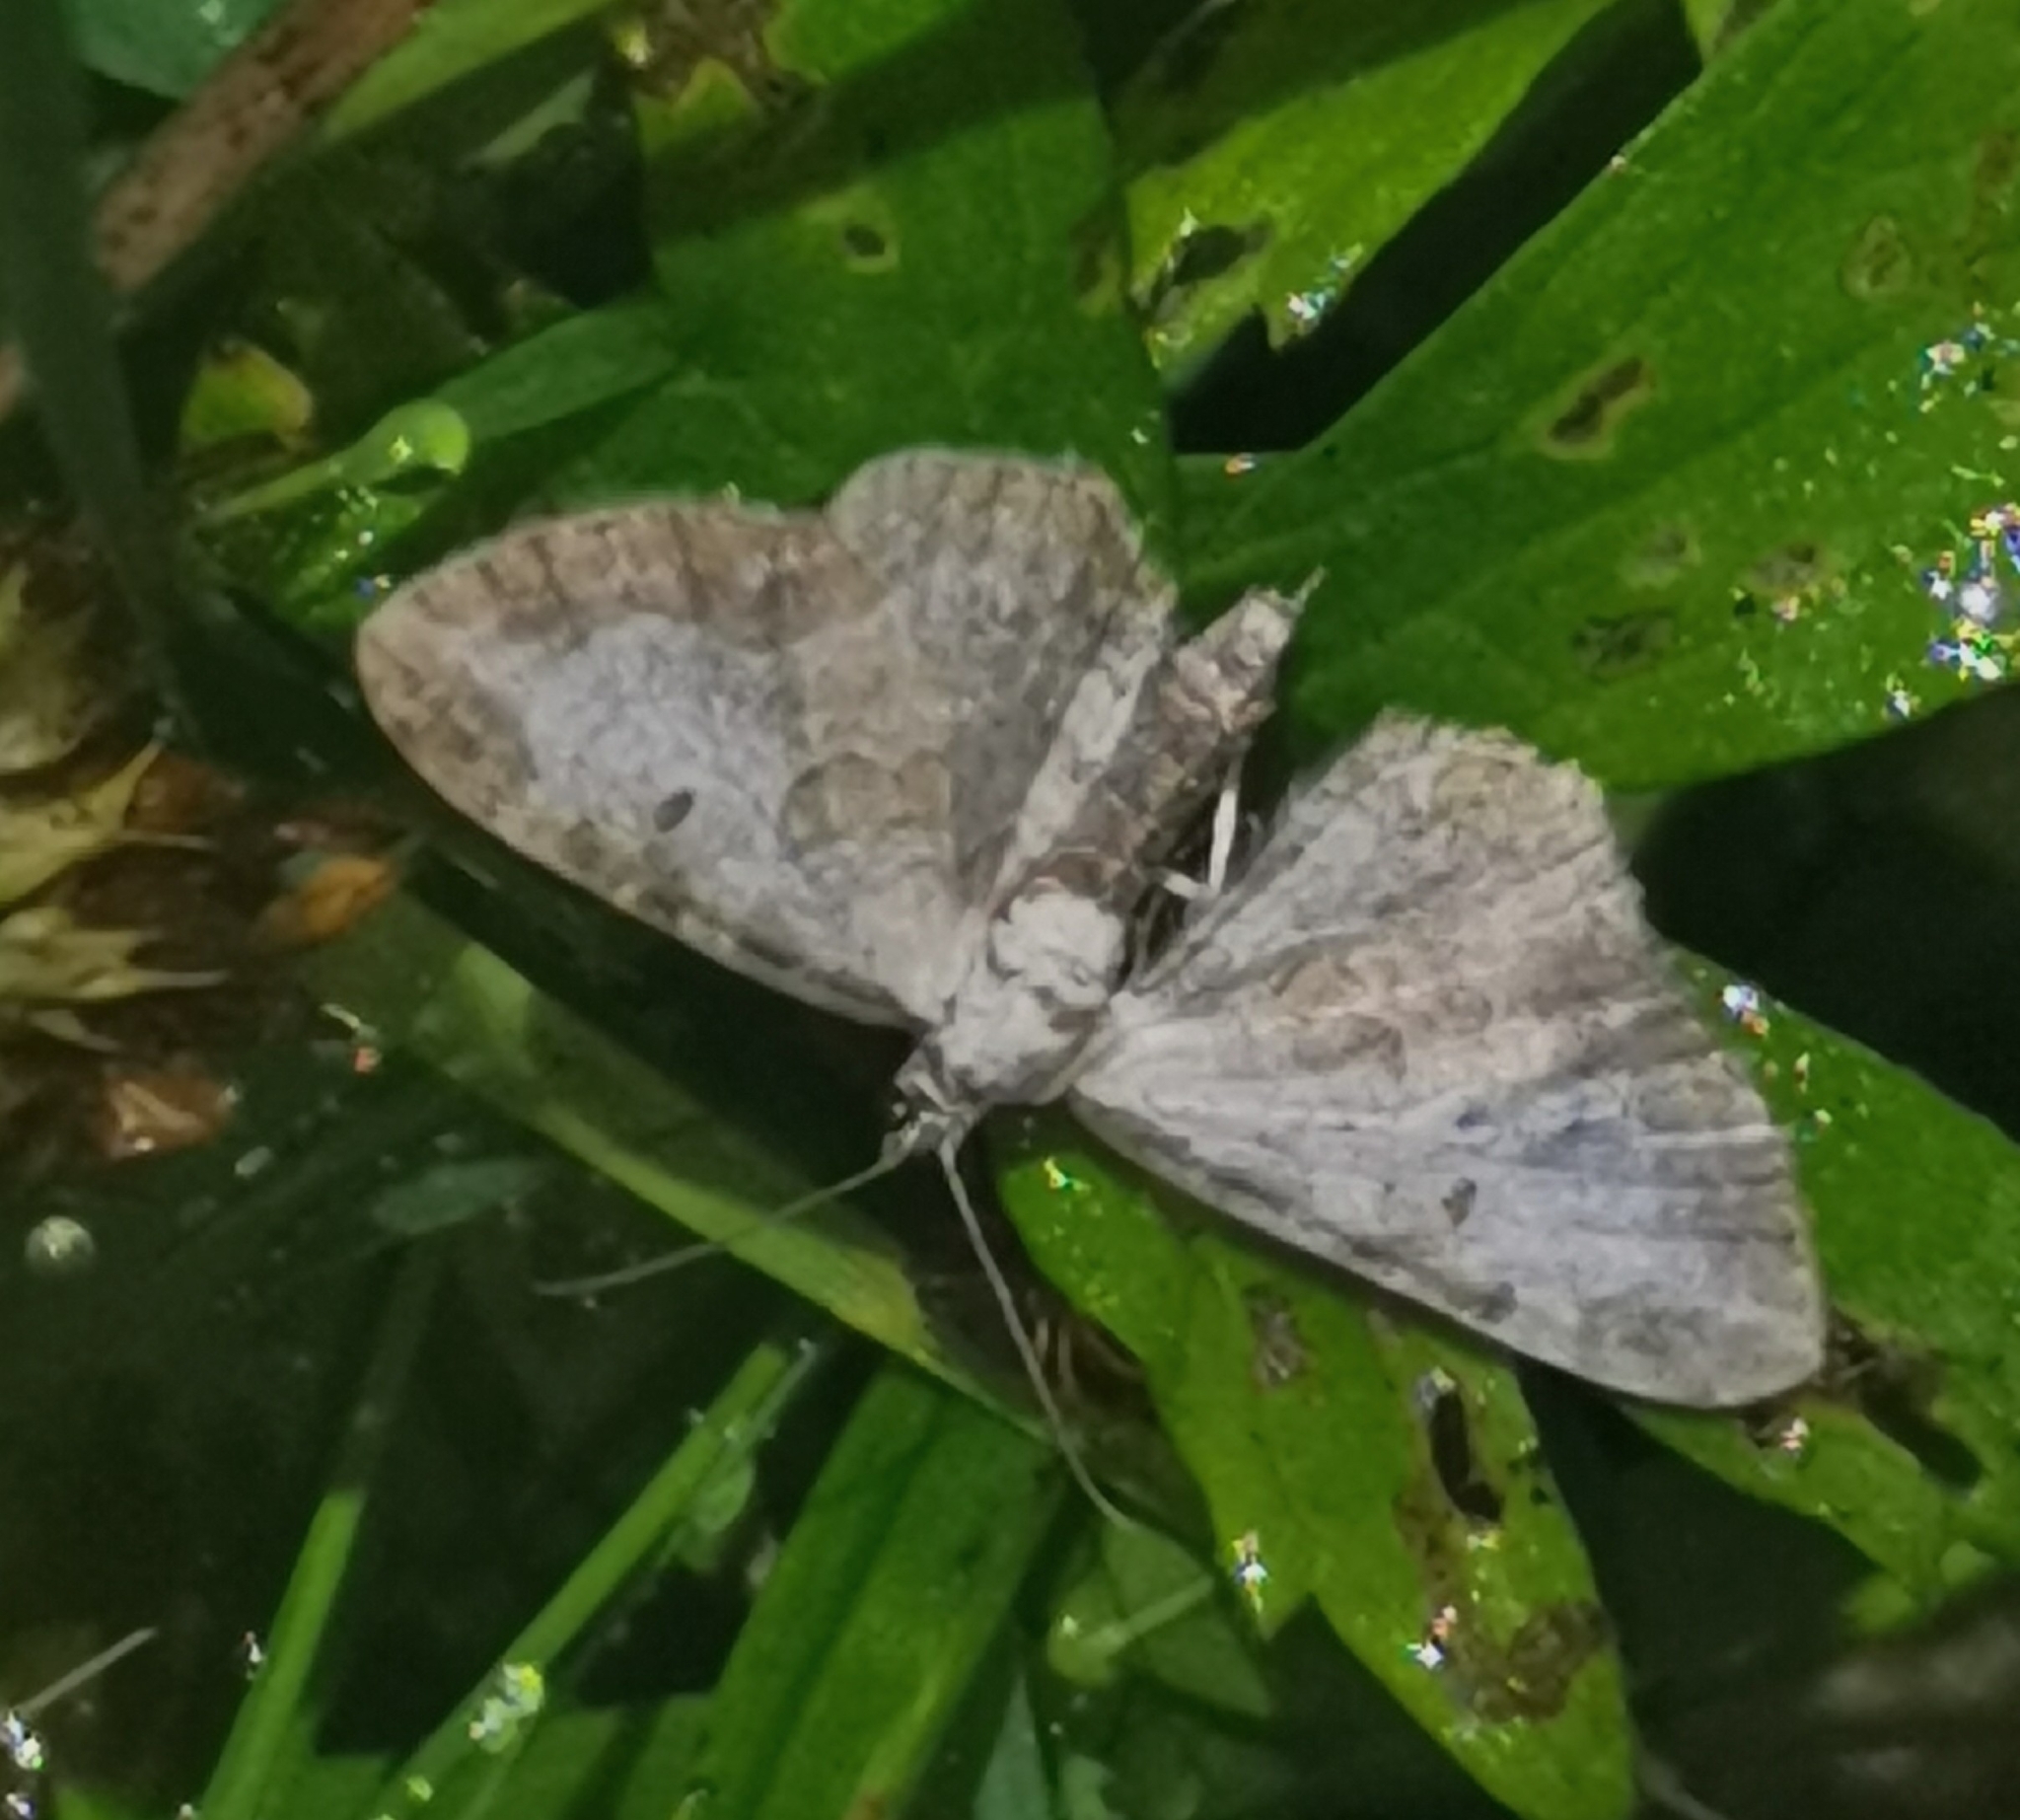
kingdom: Animalia
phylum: Arthropoda
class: Insecta
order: Lepidoptera
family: Geometridae
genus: Eupithecia
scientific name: Eupithecia succenturiata
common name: Bordered pug
